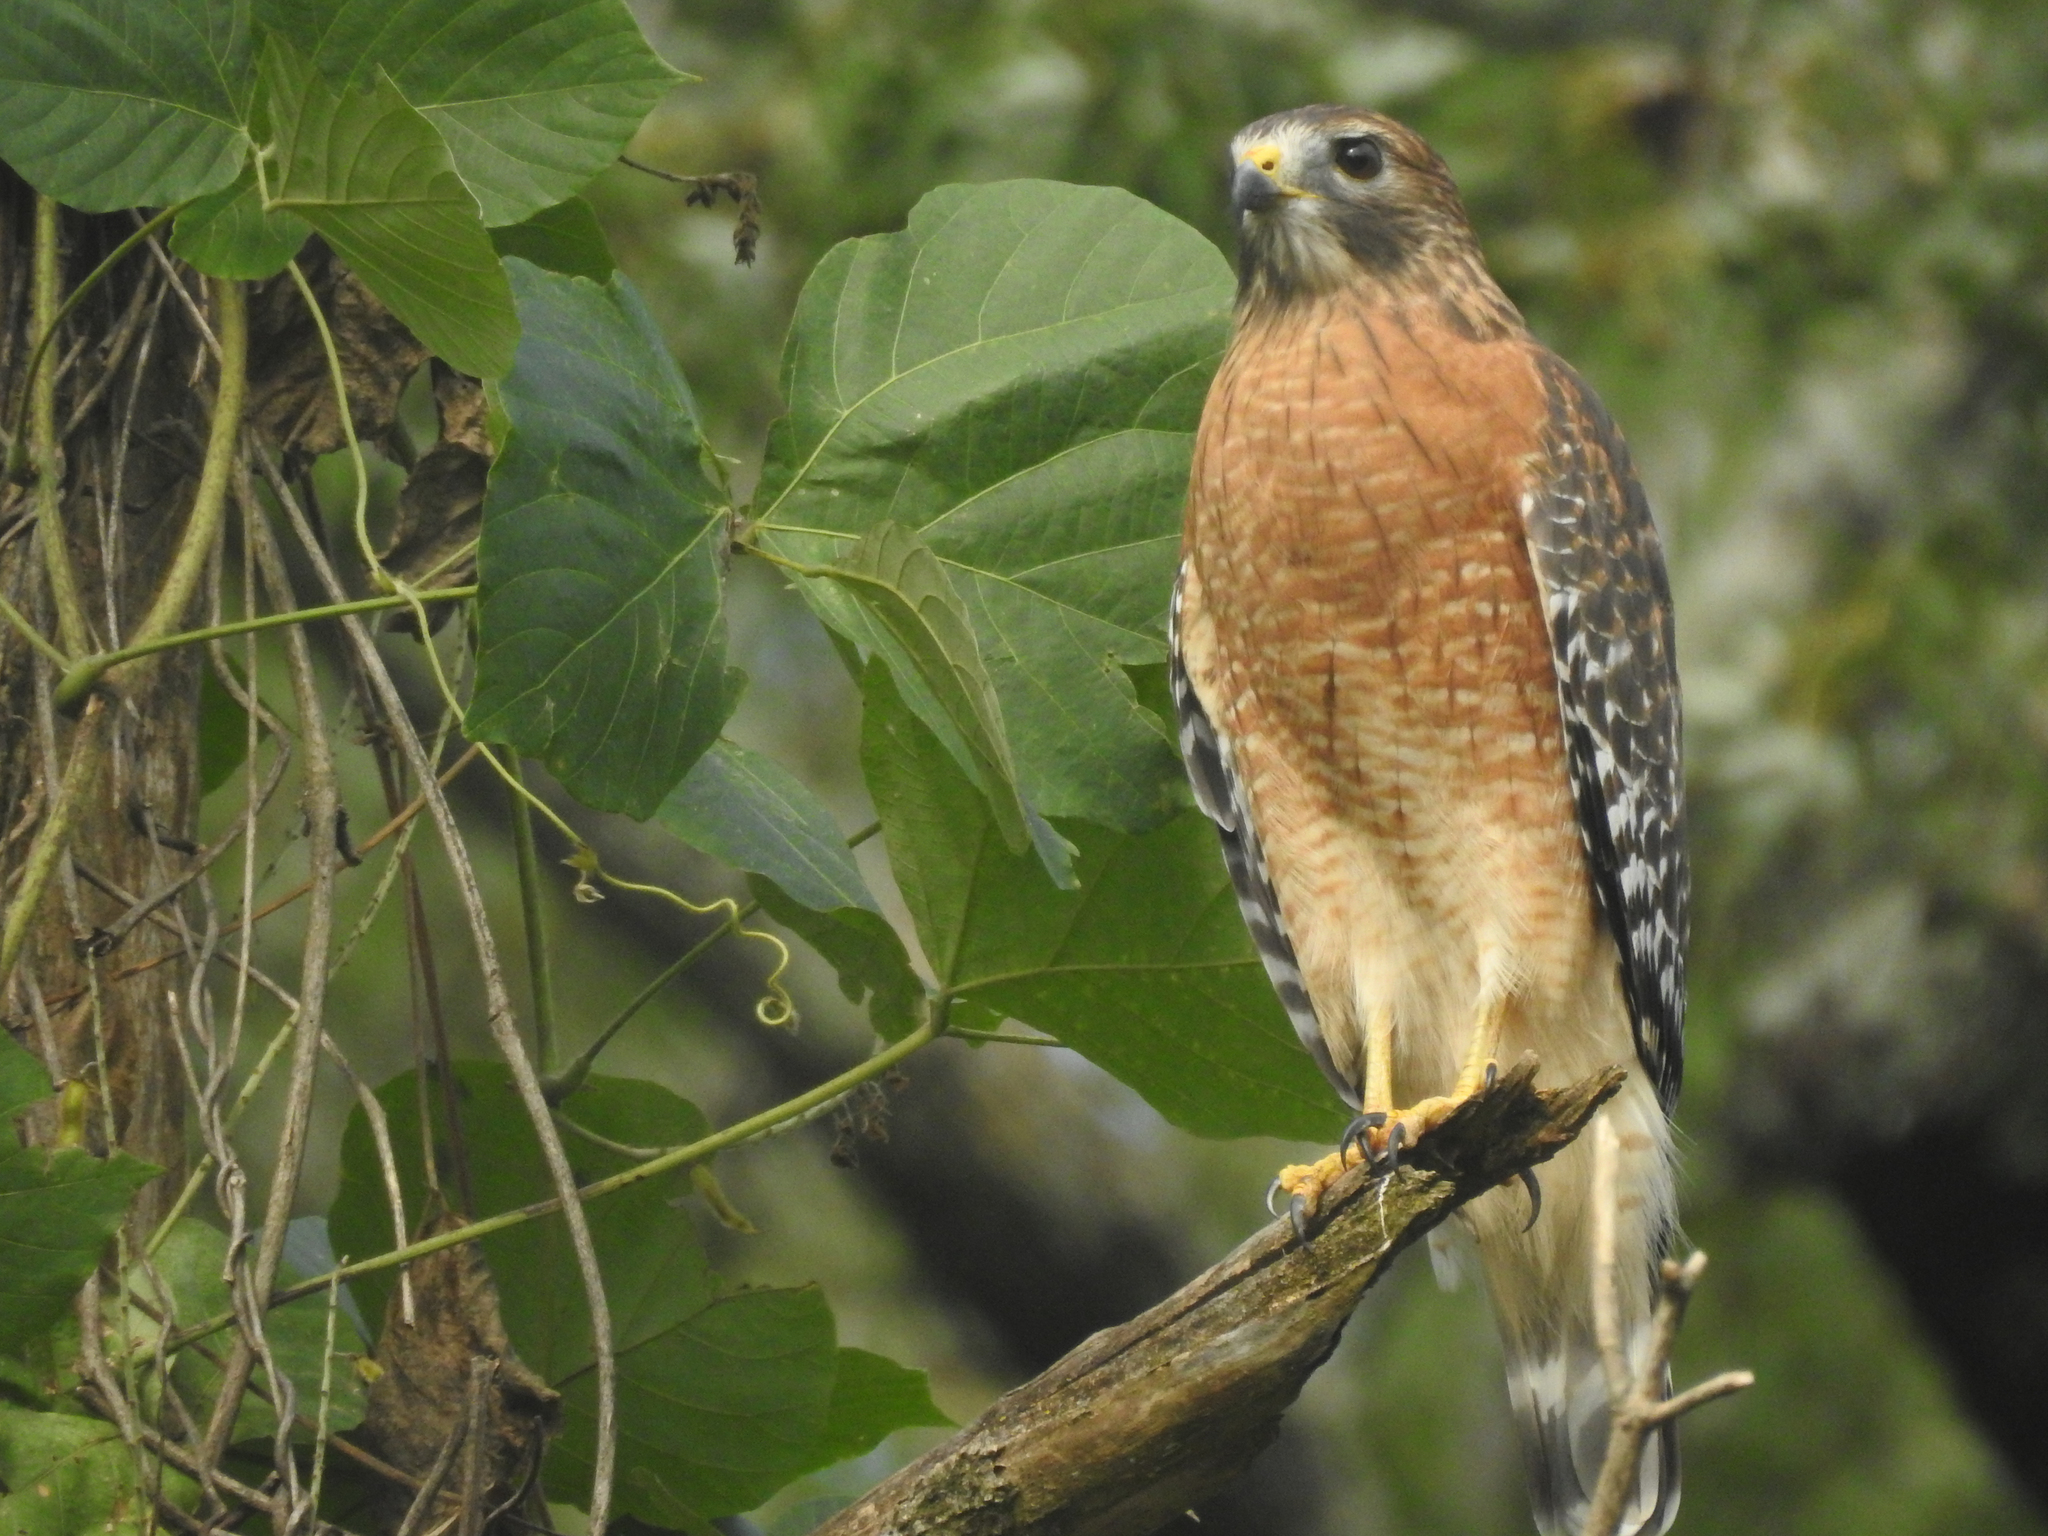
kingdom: Animalia
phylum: Chordata
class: Aves
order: Accipitriformes
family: Accipitridae
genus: Buteo
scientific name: Buteo lineatus
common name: Red-shouldered hawk
